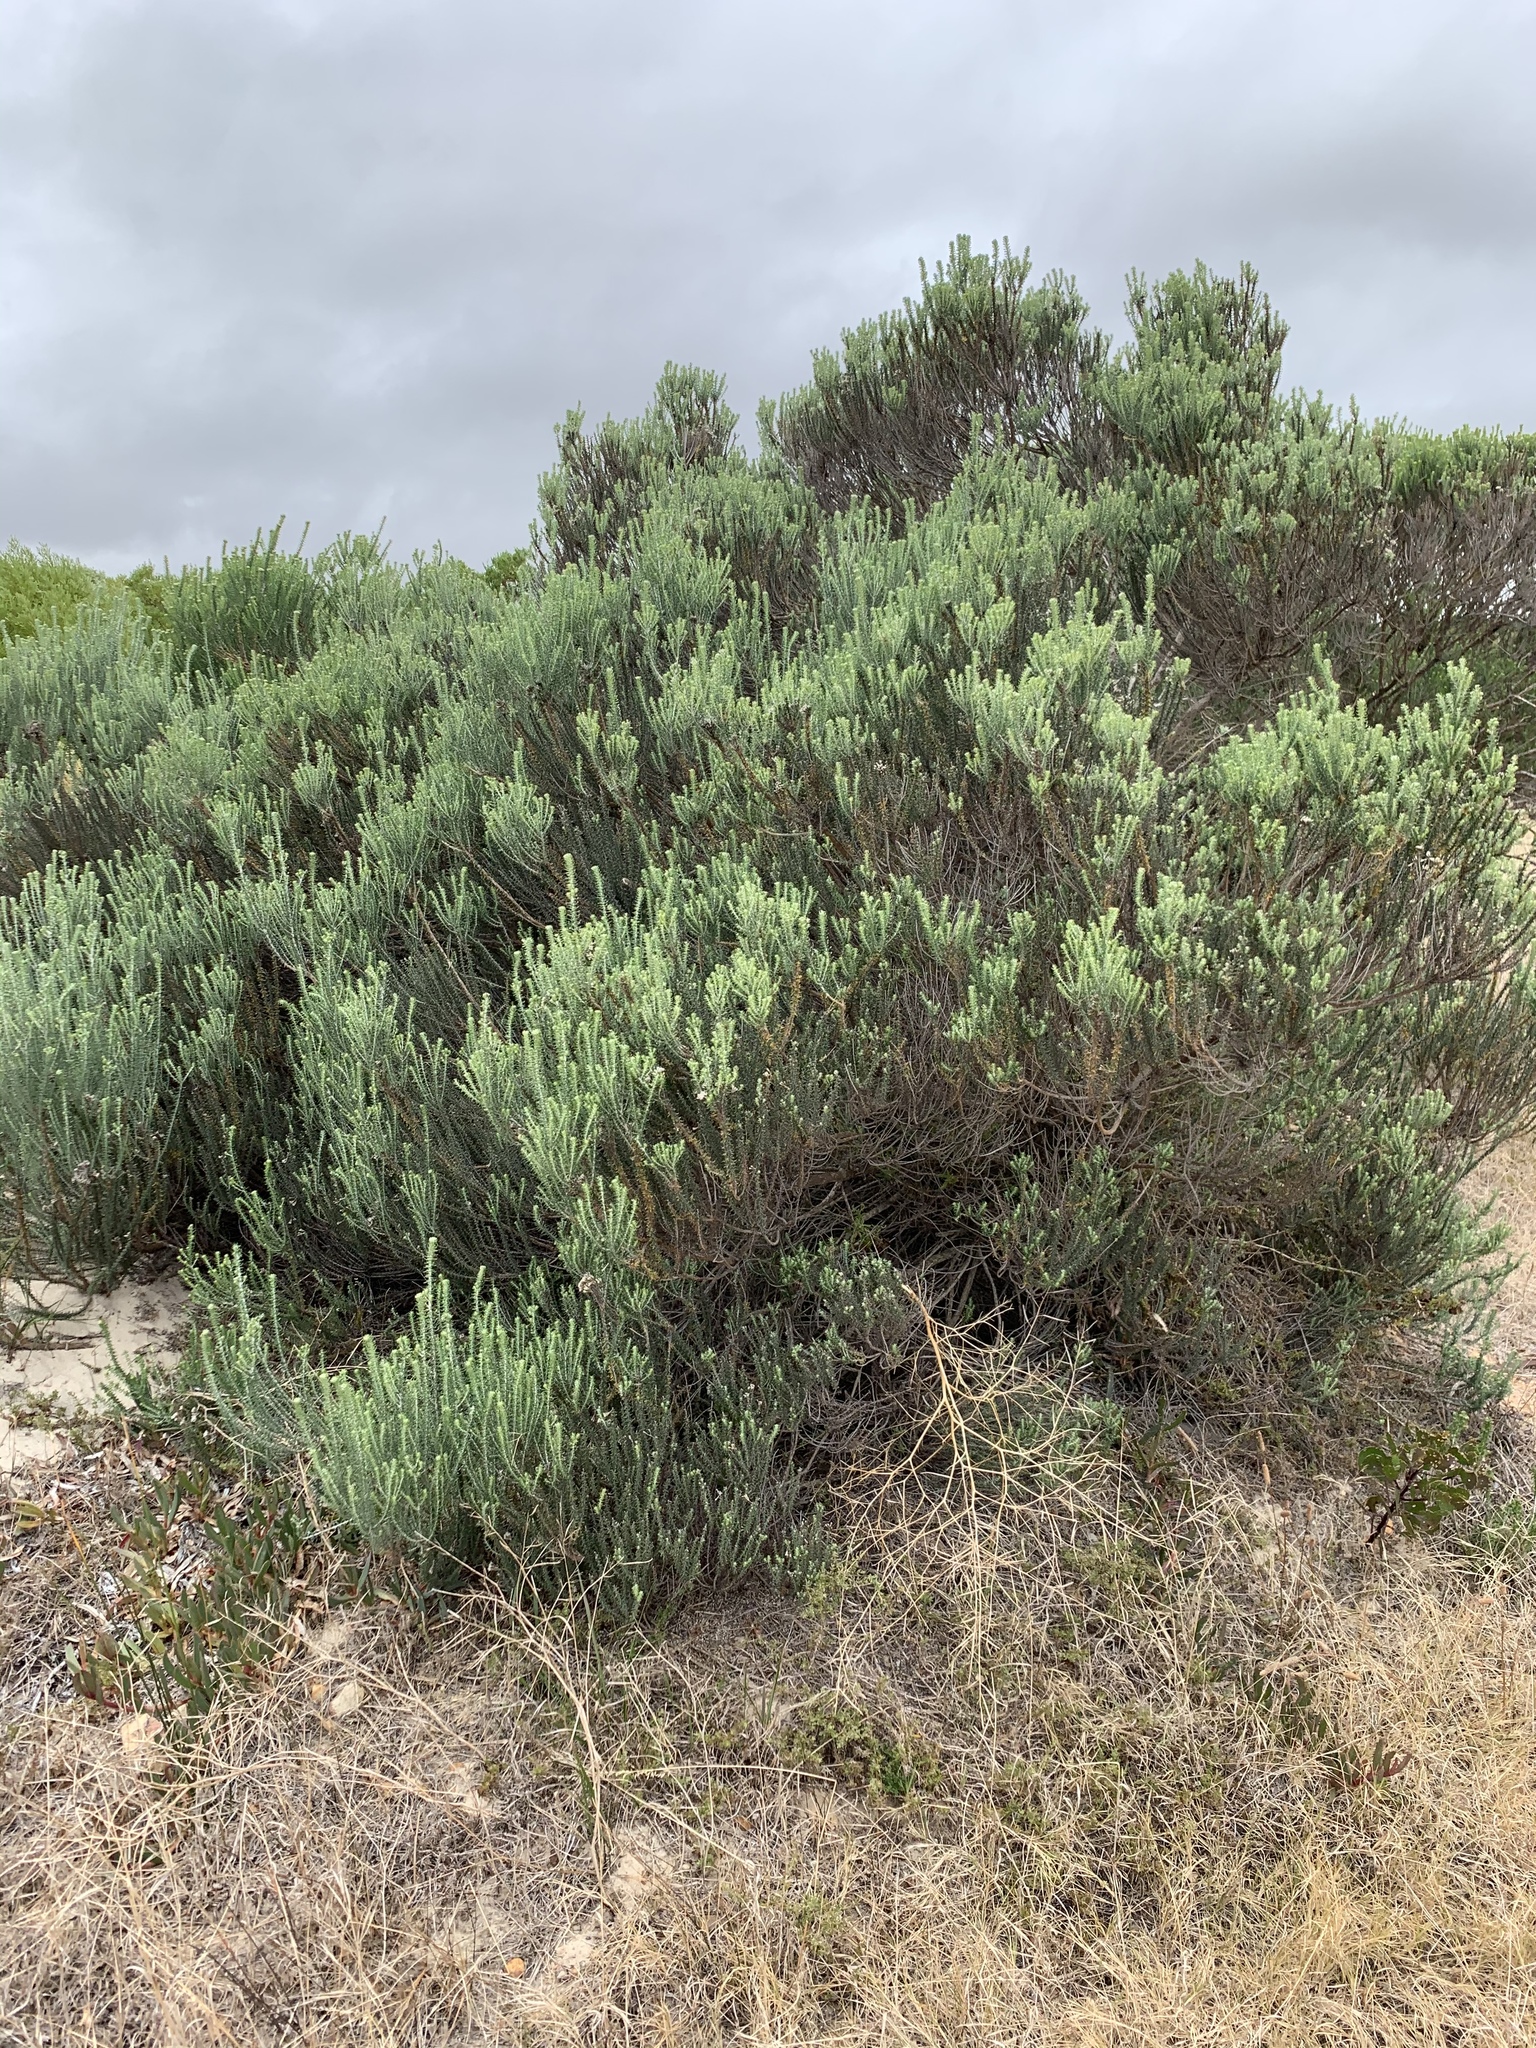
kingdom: Plantae
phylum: Tracheophyta
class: Magnoliopsida
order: Asterales
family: Asteraceae
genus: Metalasia
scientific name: Metalasia muricata
